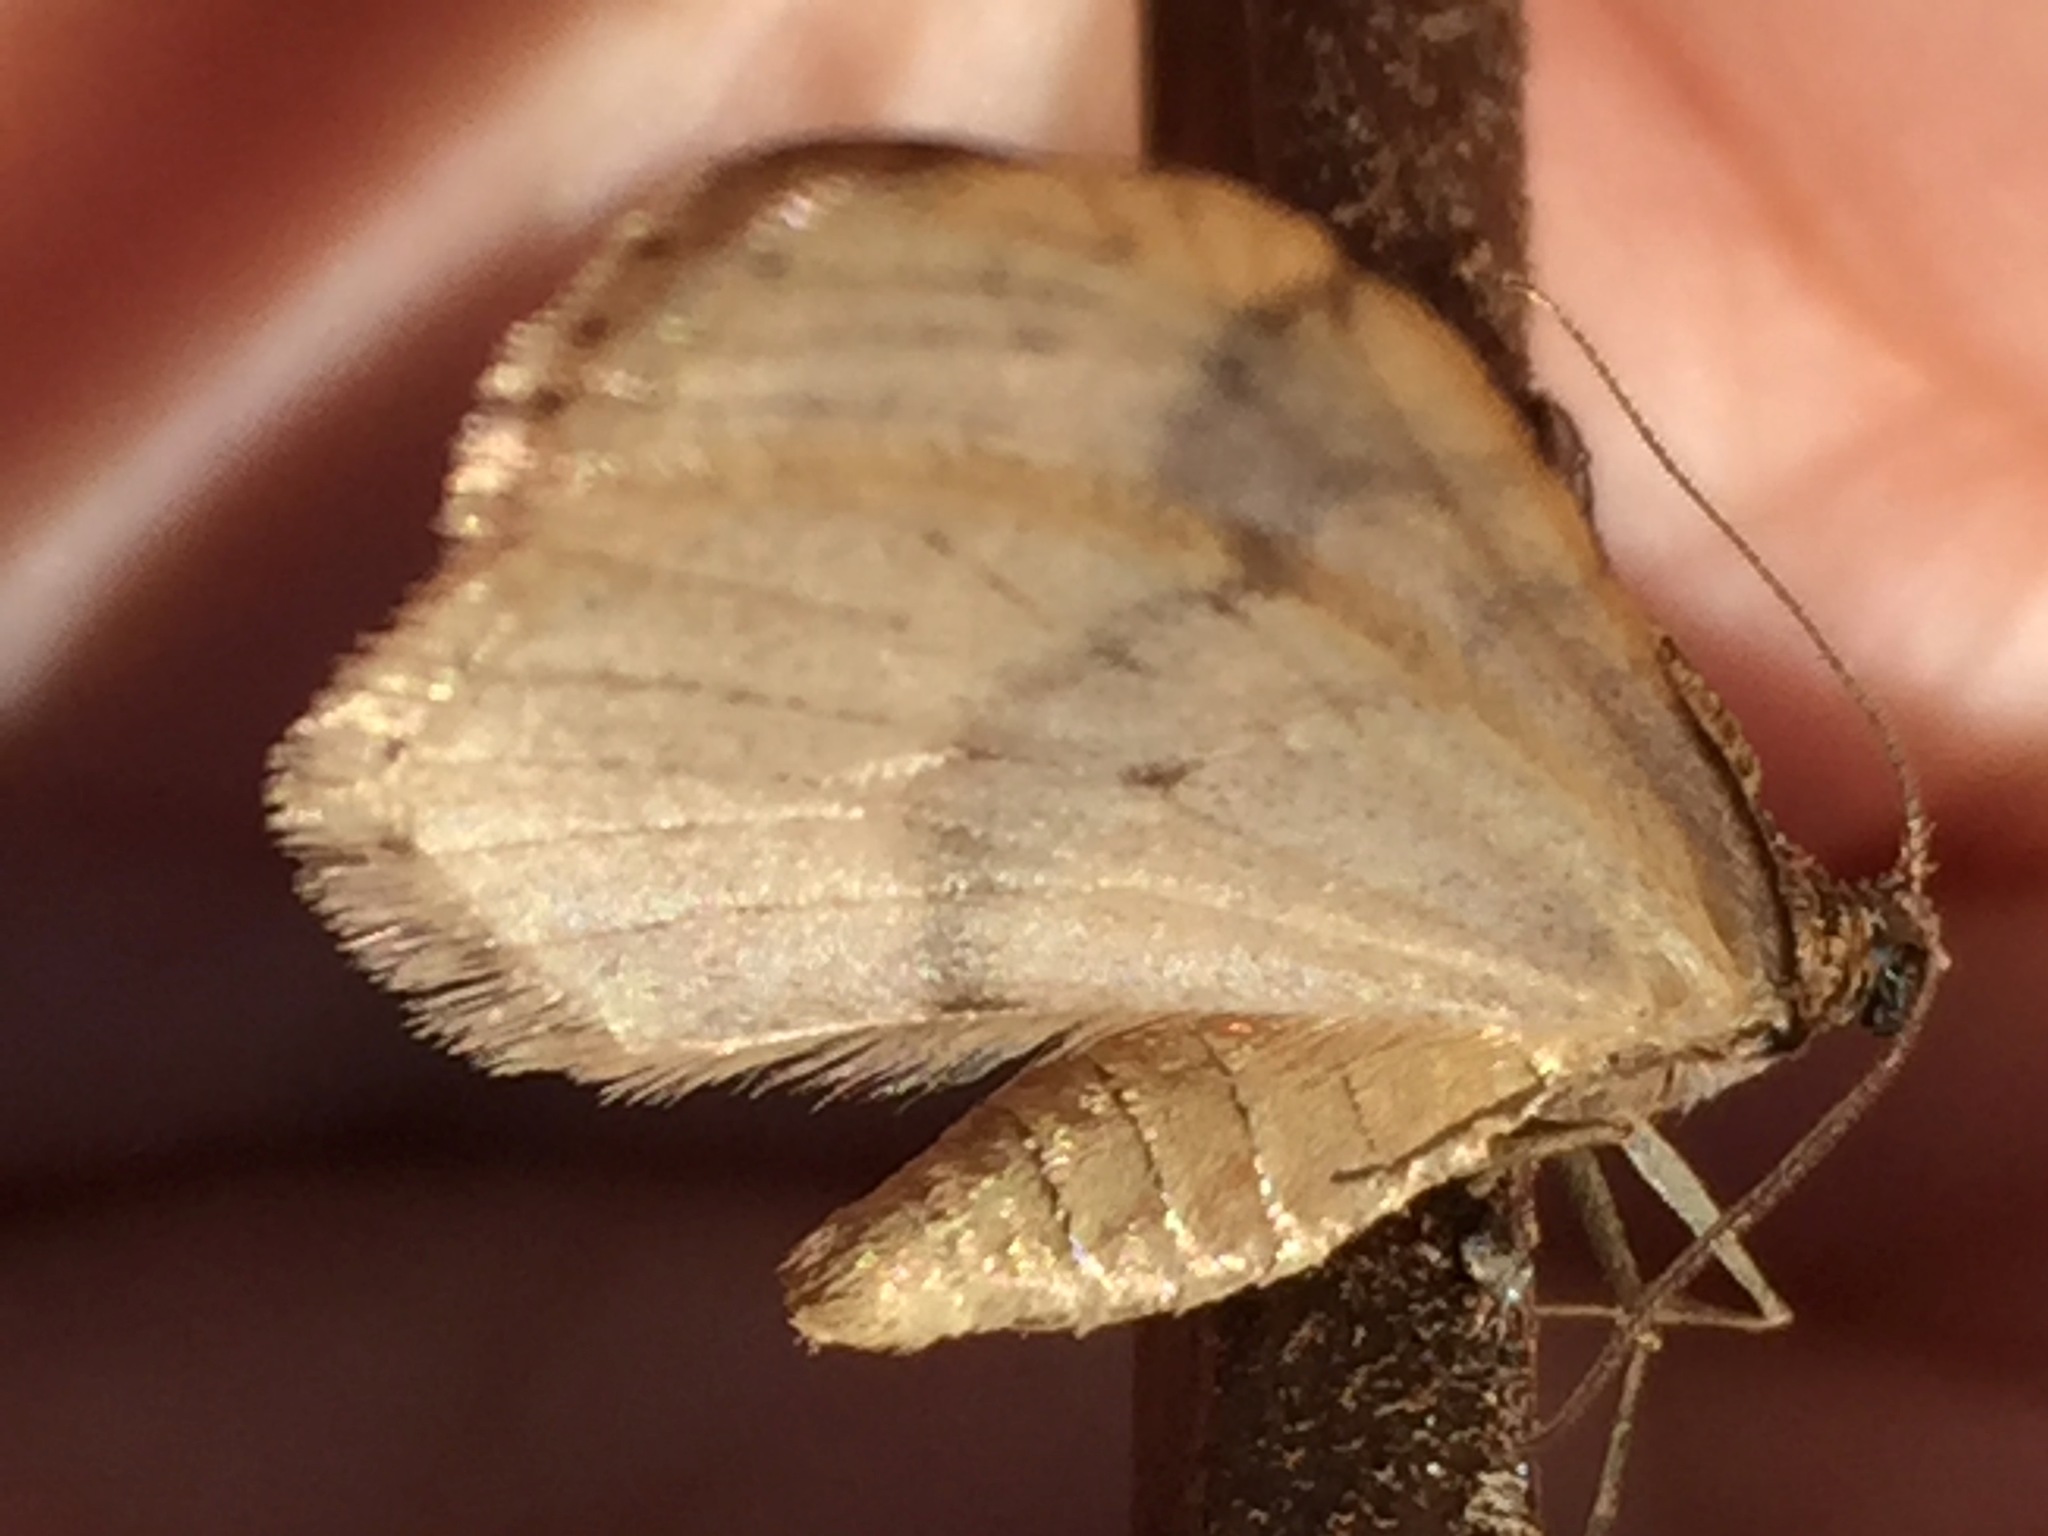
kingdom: Animalia
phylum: Arthropoda
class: Insecta
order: Lepidoptera
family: Geometridae
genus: Operophtera
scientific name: Operophtera bruceata
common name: Bruce spanworm
